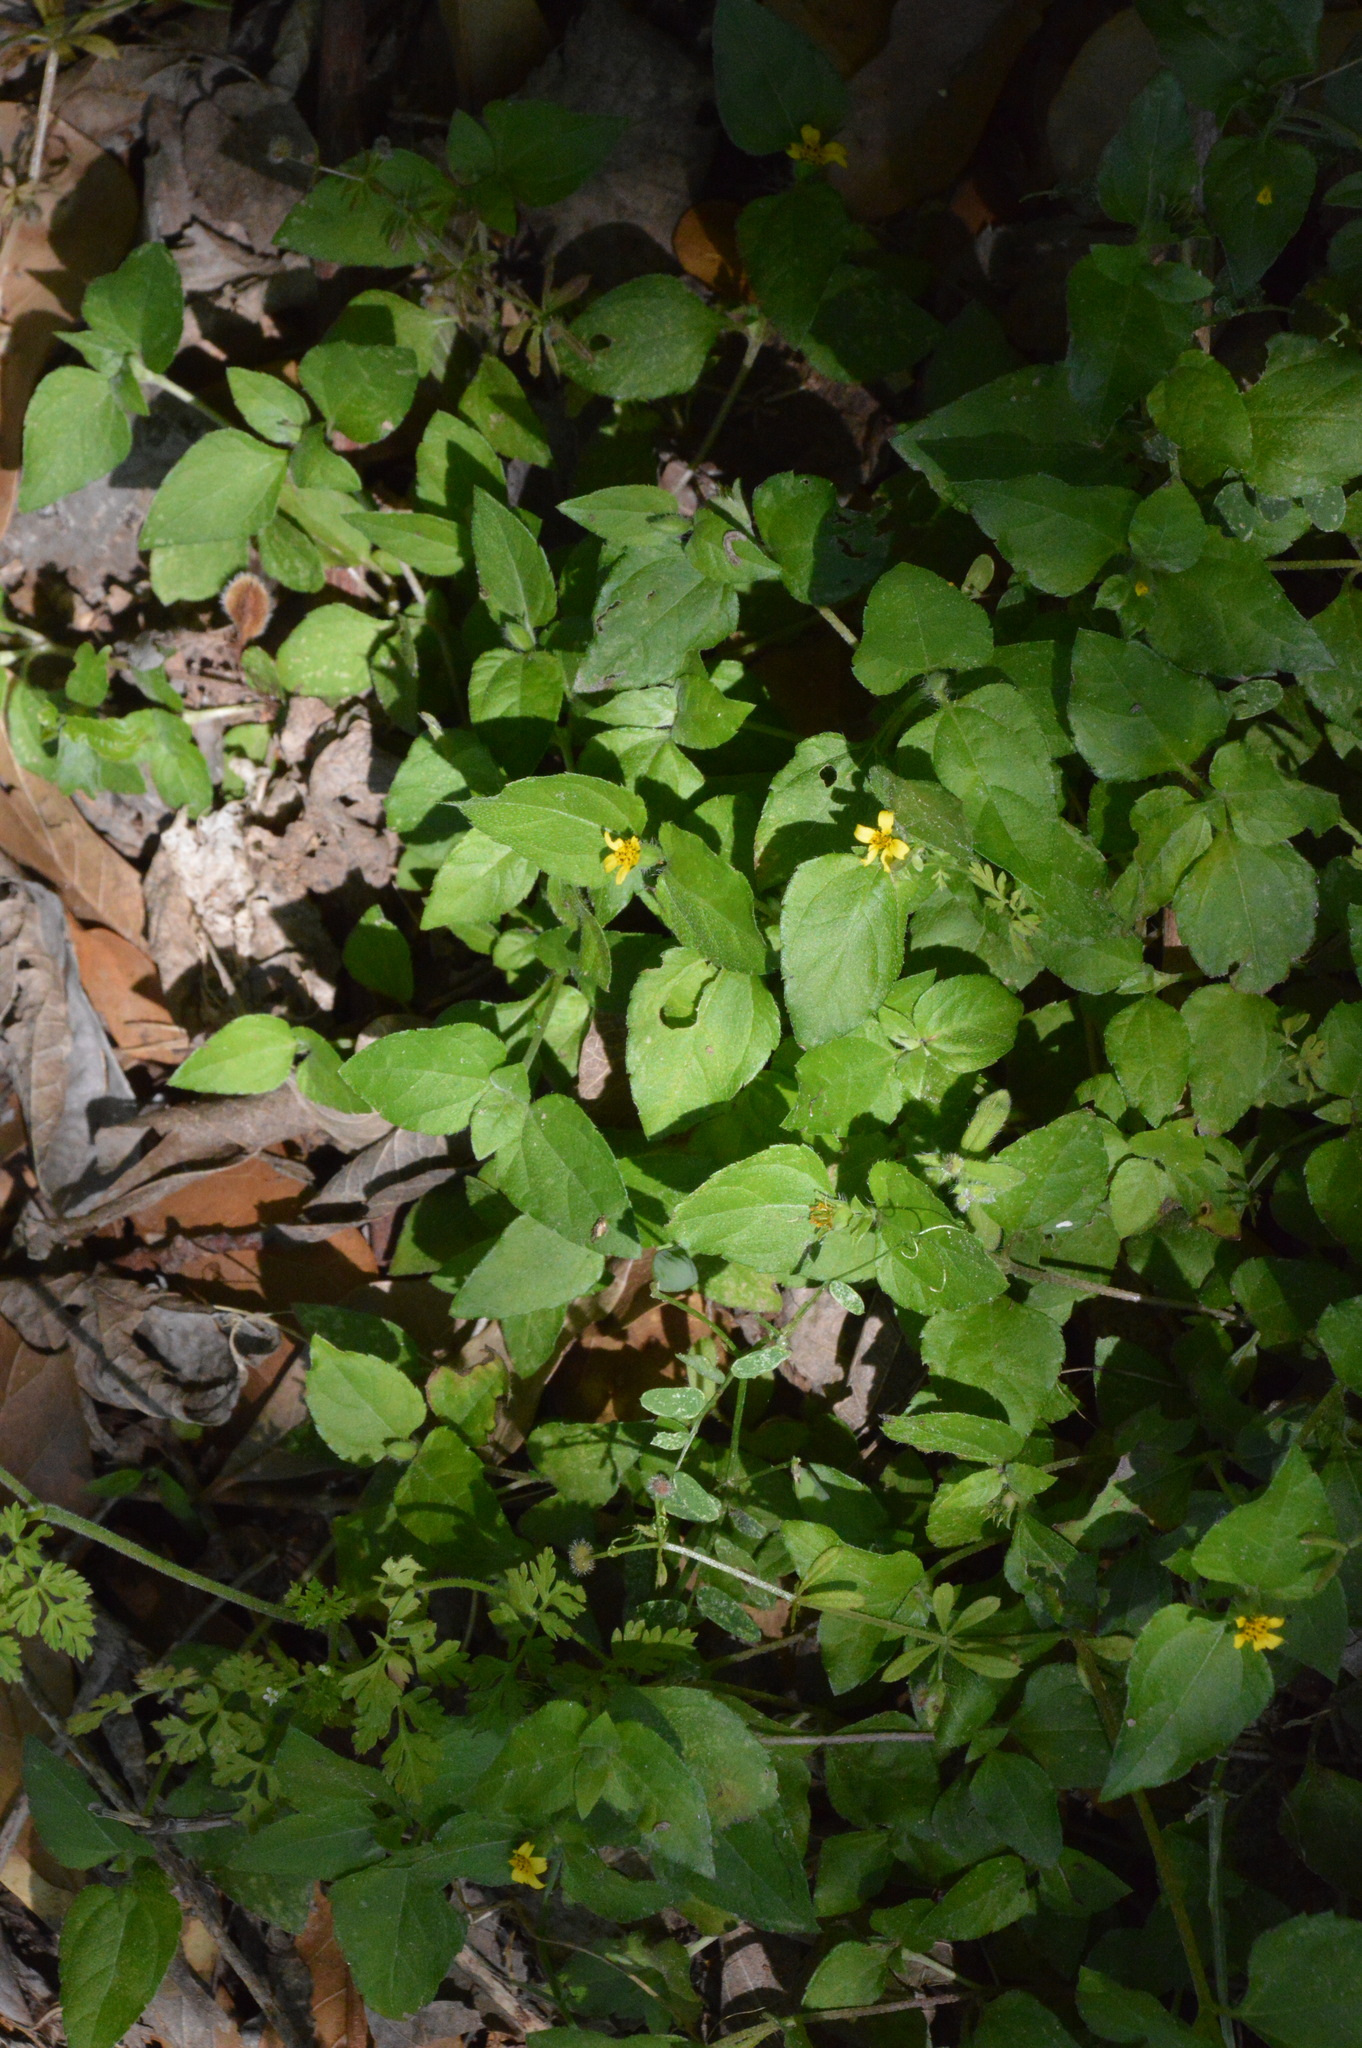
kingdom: Plantae
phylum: Tracheophyta
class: Magnoliopsida
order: Asterales
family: Asteraceae
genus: Calyptocarpus
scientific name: Calyptocarpus vialis
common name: Straggler daisy
